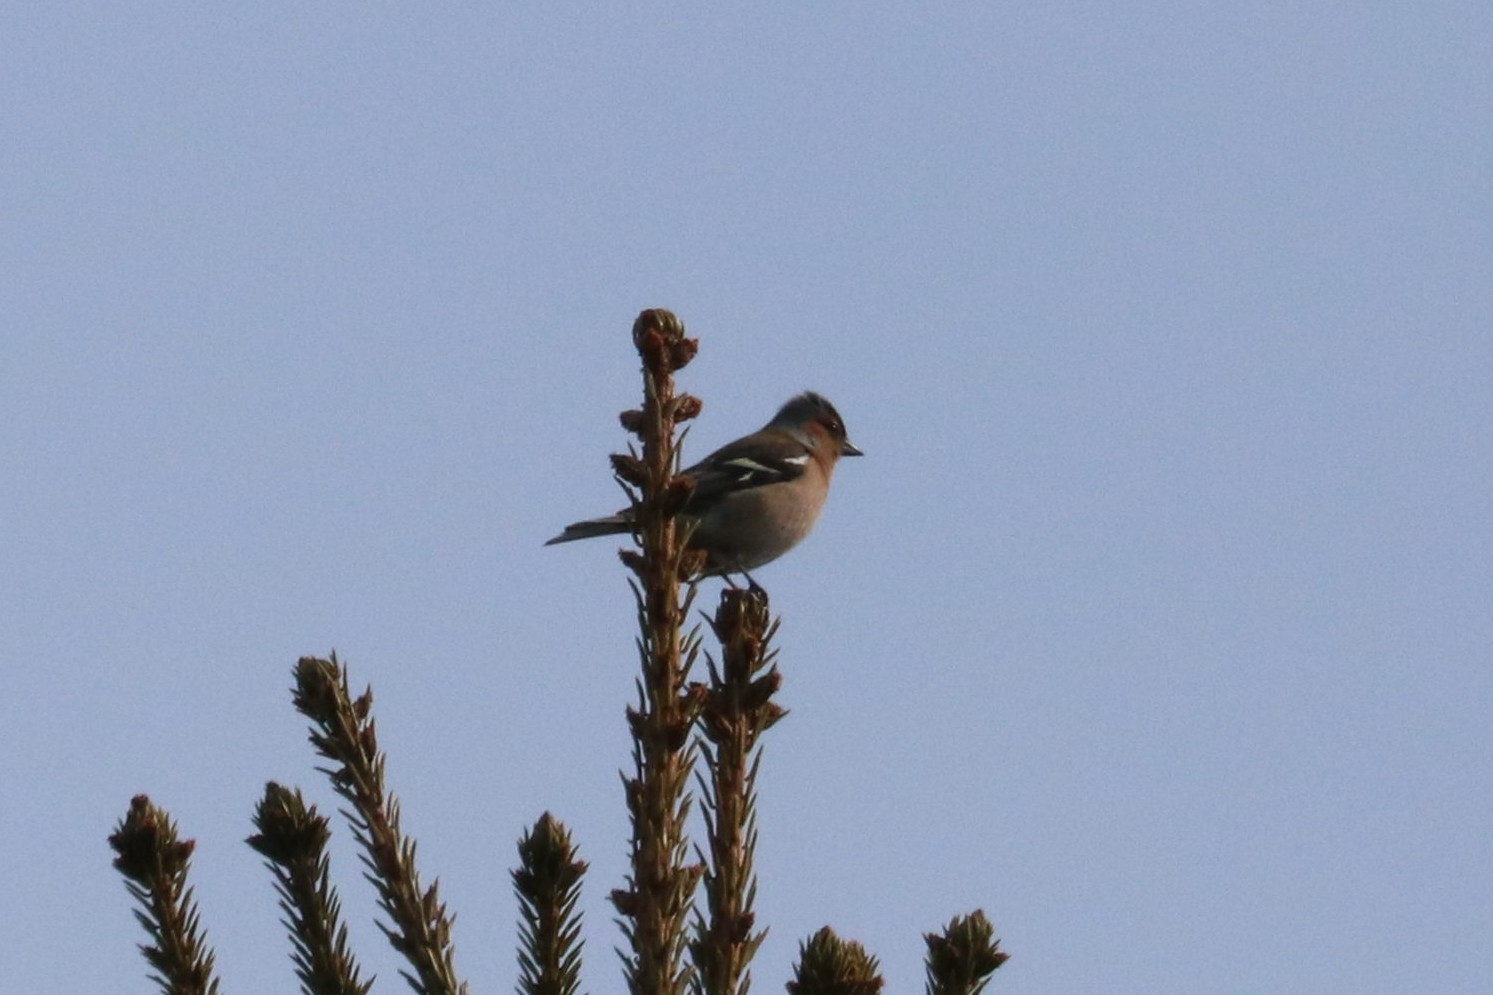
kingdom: Animalia
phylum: Chordata
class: Aves
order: Passeriformes
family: Fringillidae
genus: Fringilla
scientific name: Fringilla coelebs
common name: Common chaffinch
